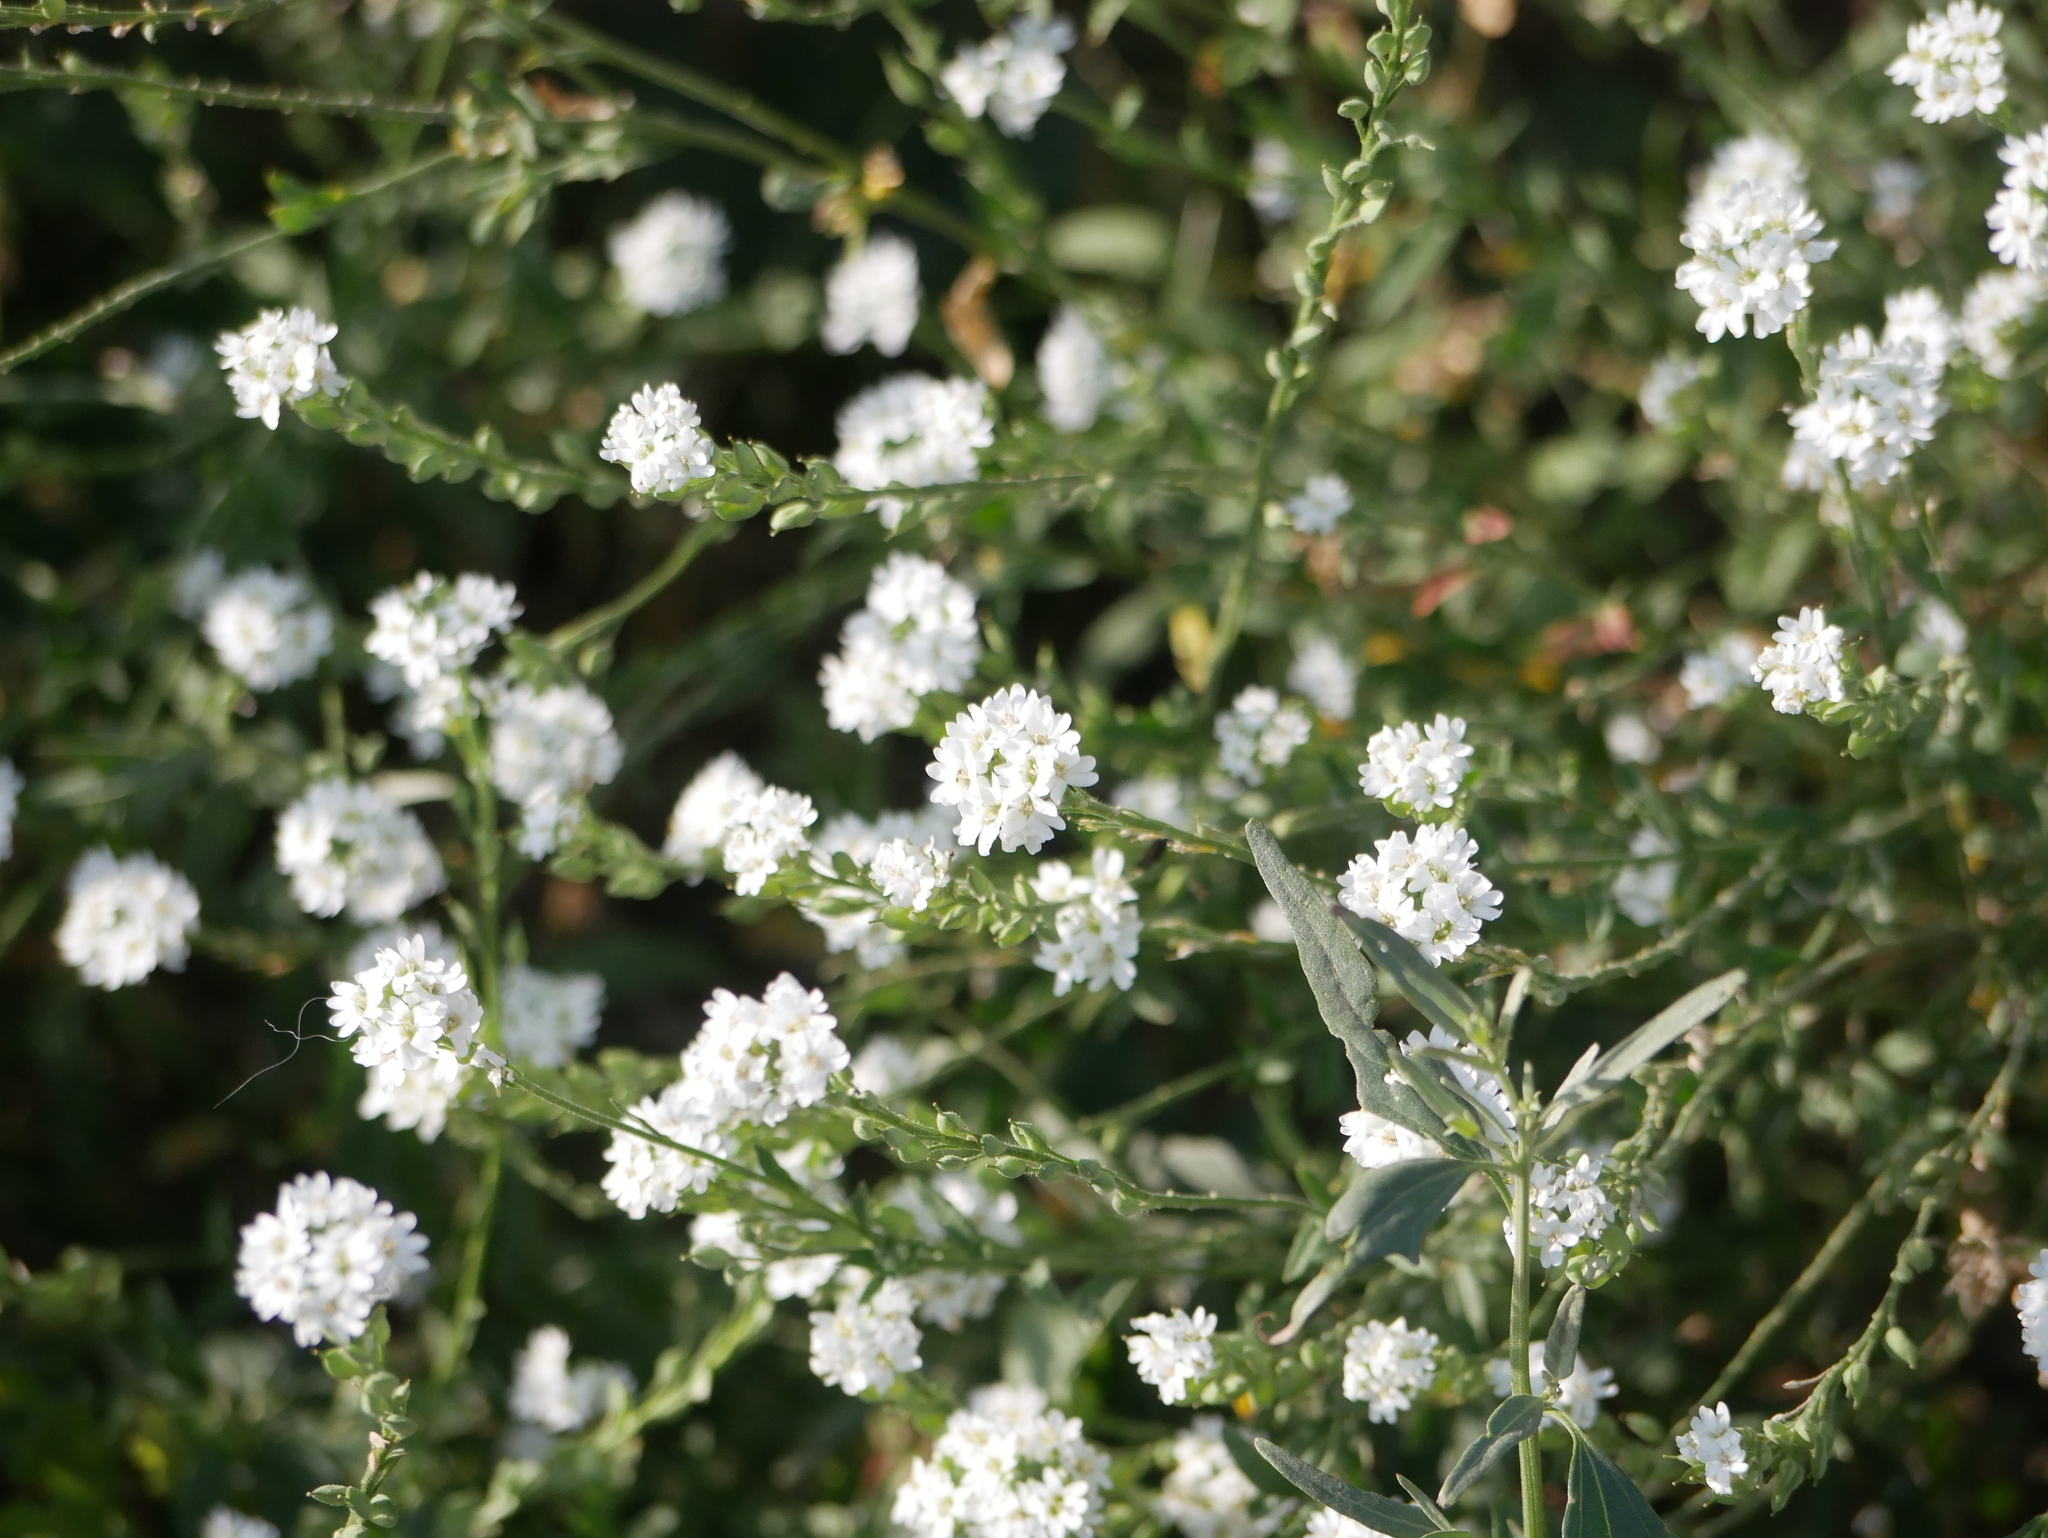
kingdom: Plantae
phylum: Tracheophyta
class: Magnoliopsida
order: Brassicales
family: Brassicaceae
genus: Berteroa
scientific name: Berteroa incana
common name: Hoary alison
